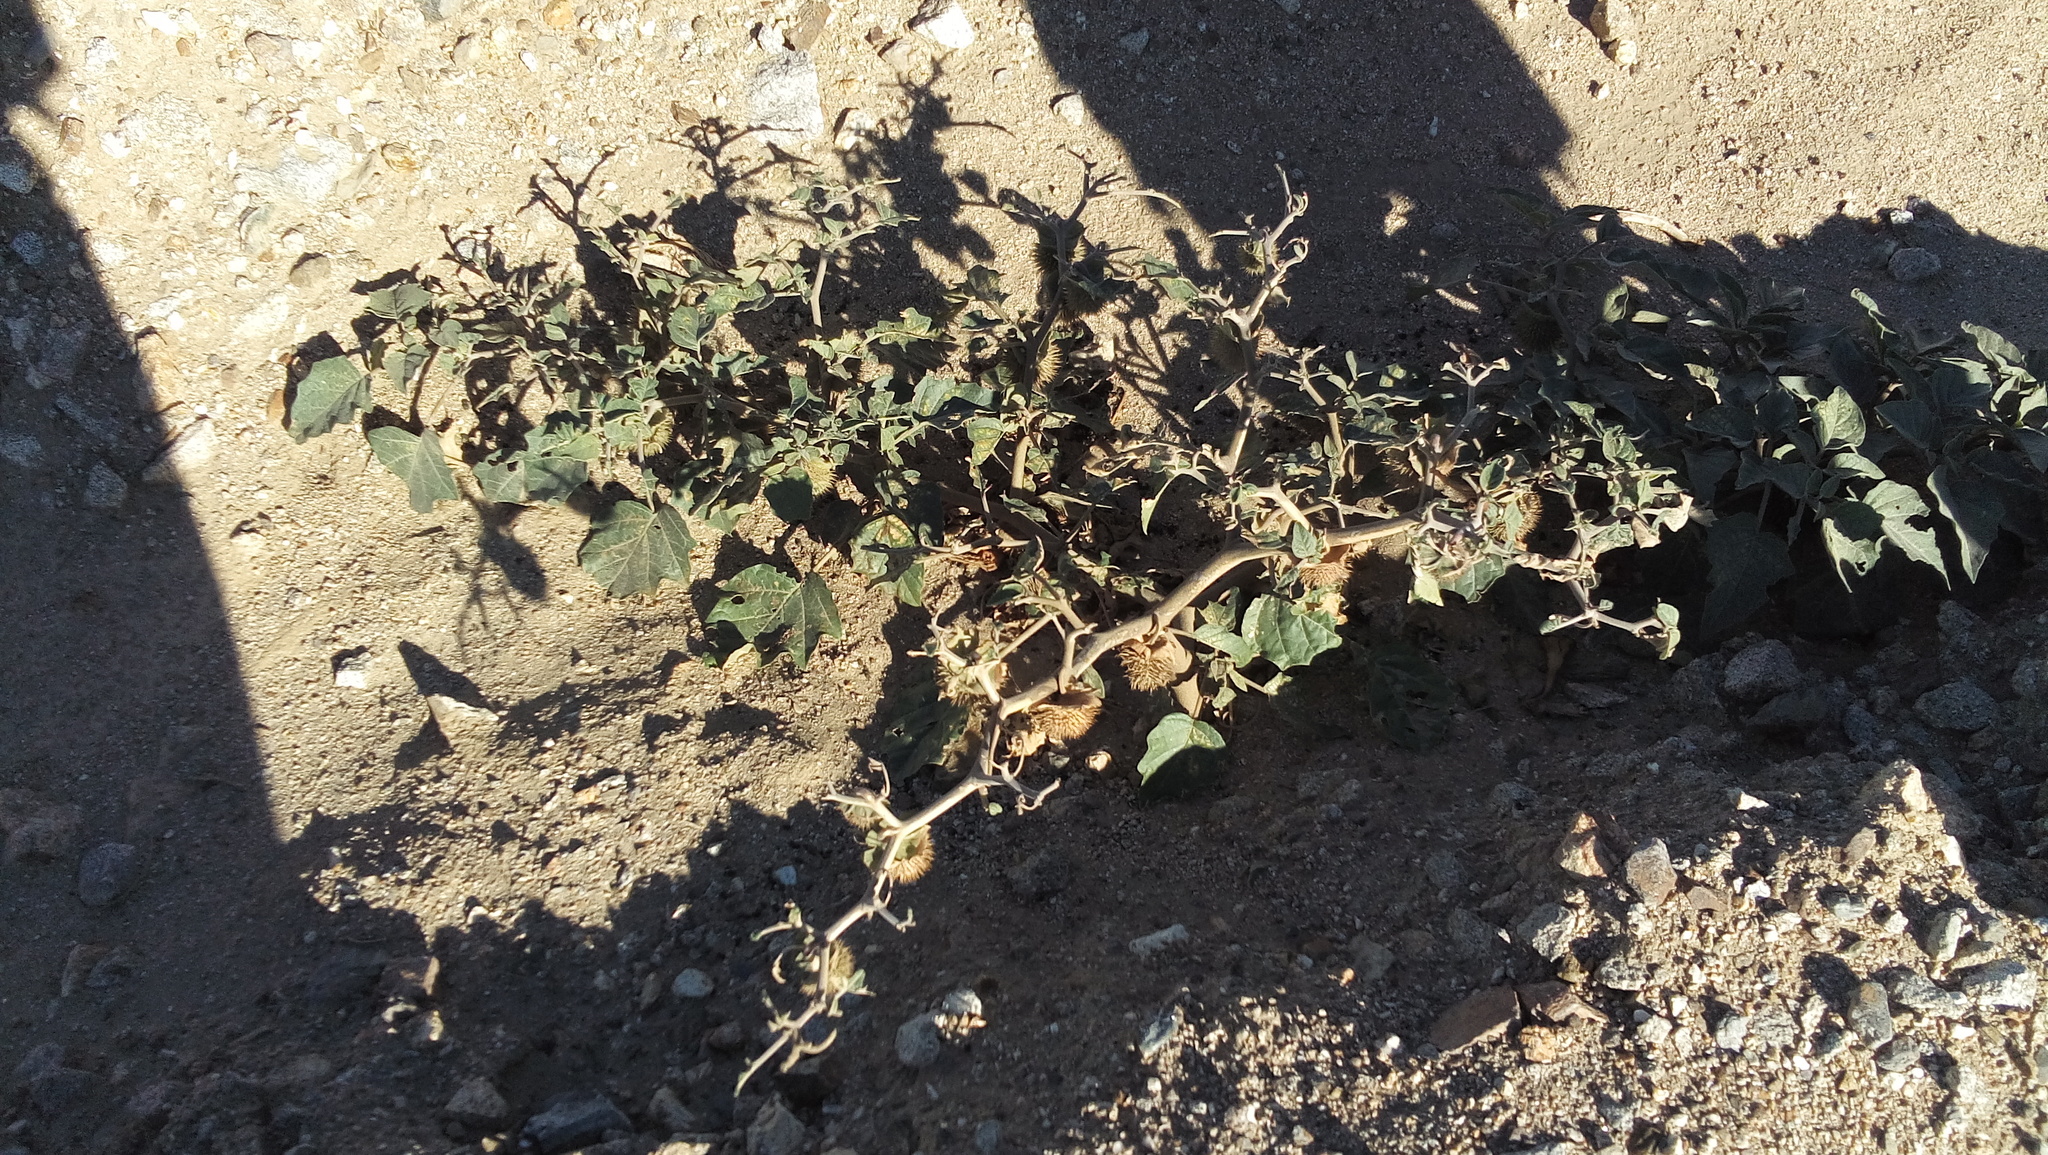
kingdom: Plantae
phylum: Tracheophyta
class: Magnoliopsida
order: Solanales
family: Solanaceae
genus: Datura
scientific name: Datura wrightii
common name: Sacred thorn-apple
